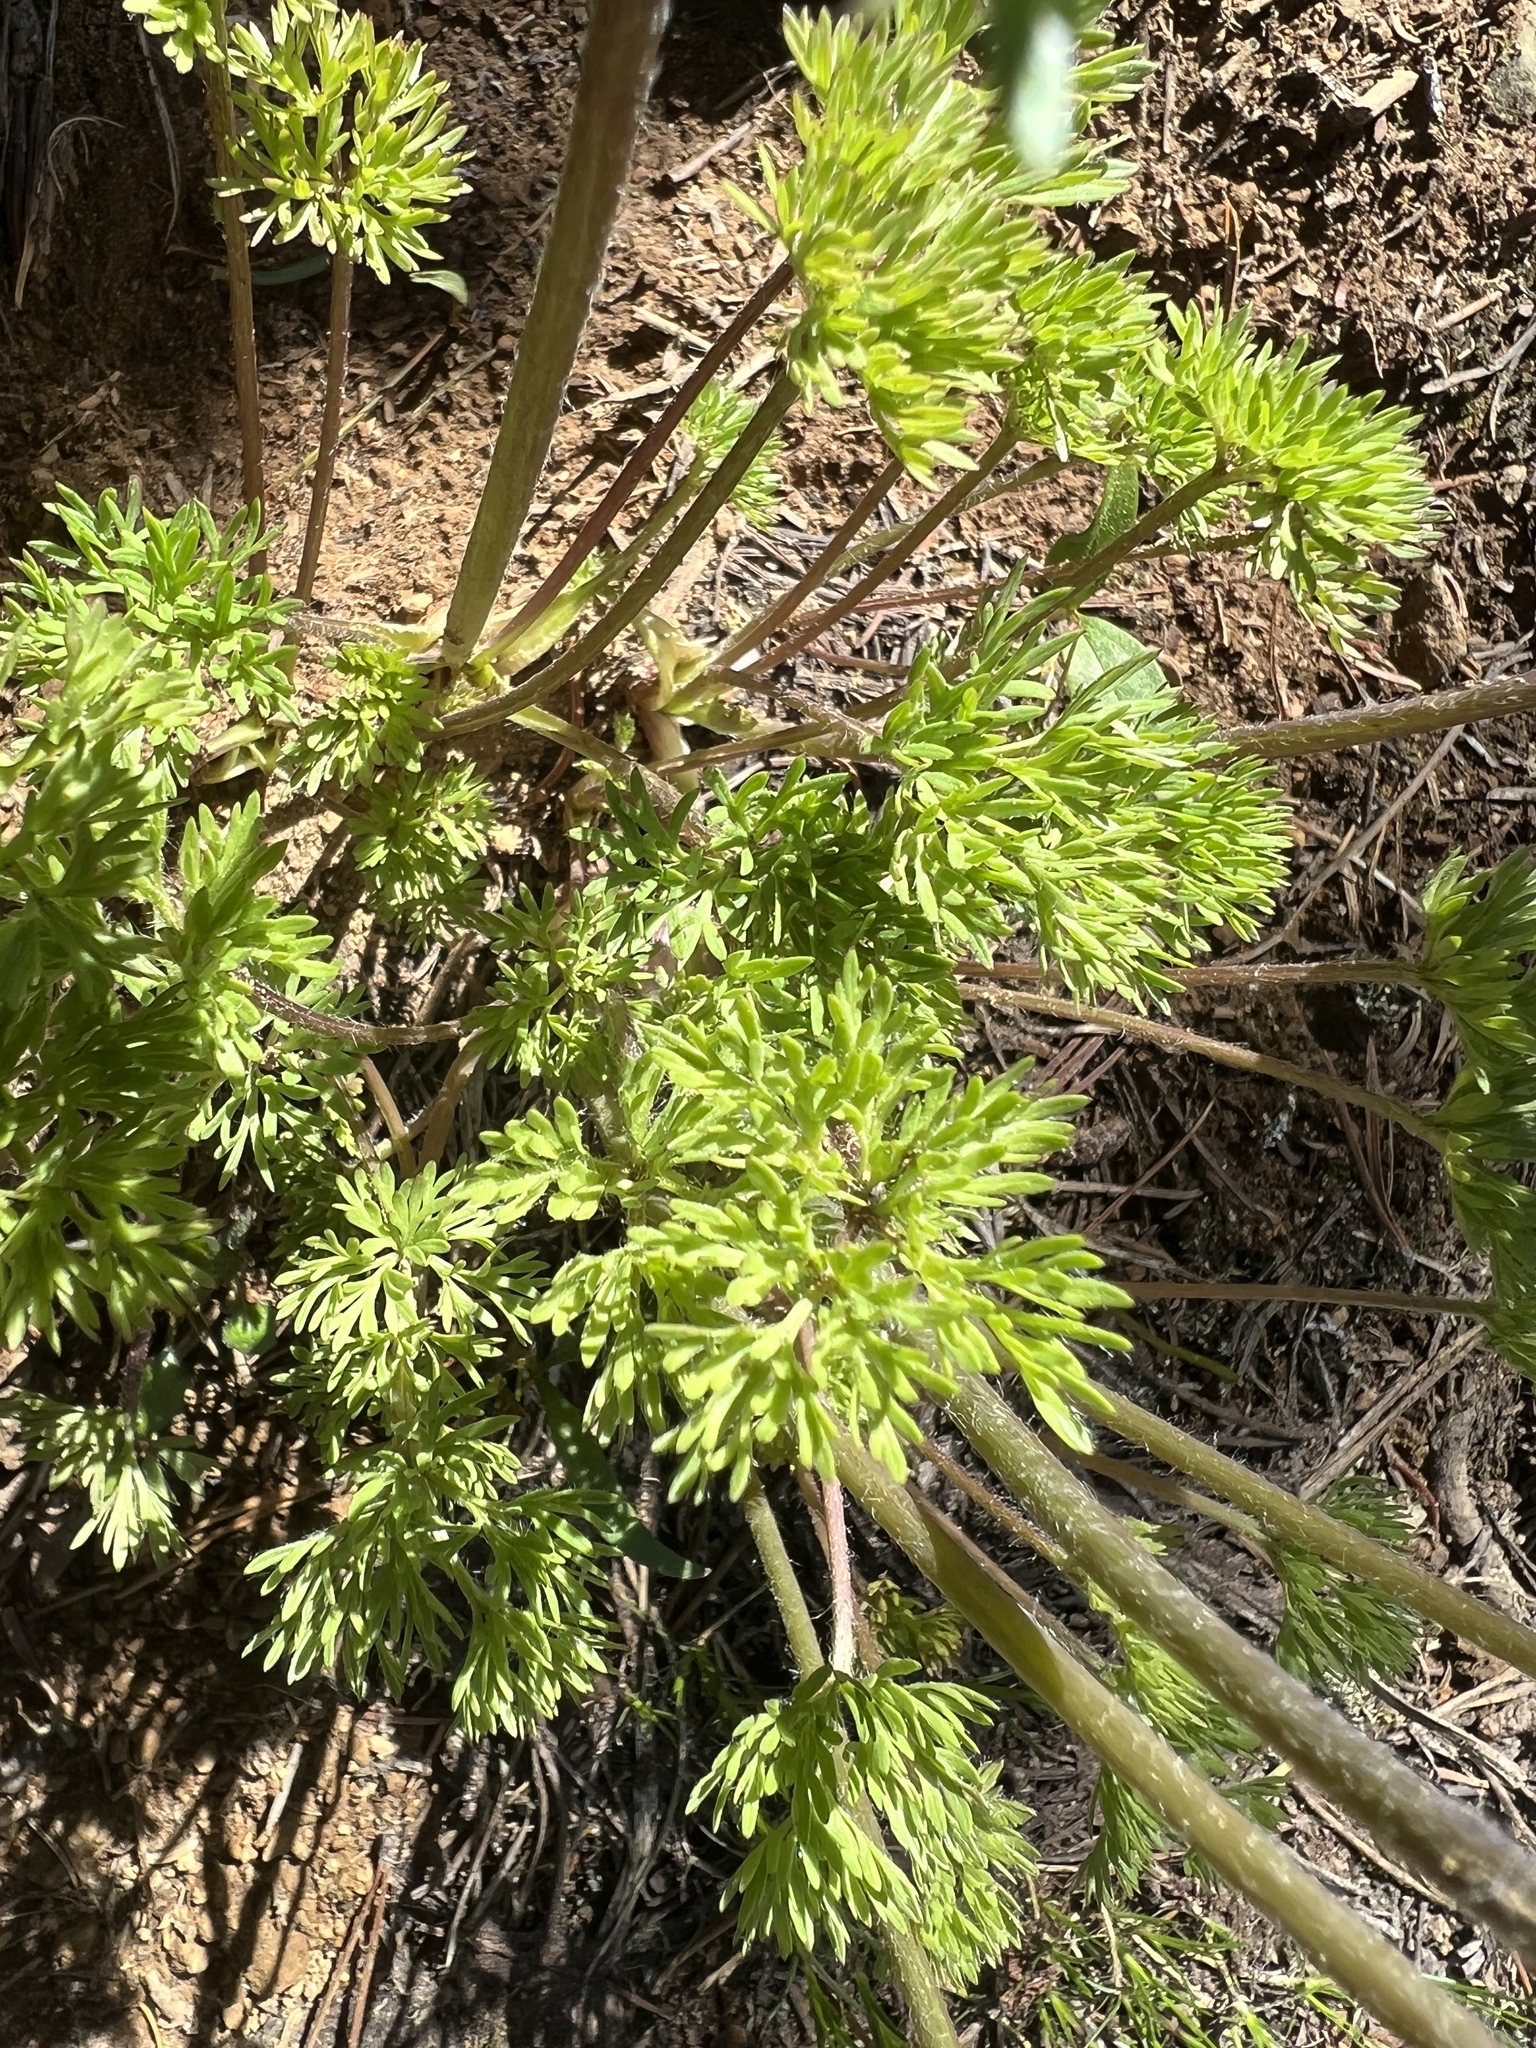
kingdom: Plantae
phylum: Tracheophyta
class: Magnoliopsida
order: Ranunculales
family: Ranunculaceae
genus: Anemone
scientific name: Anemone drummondii
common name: Drummond's anemone
